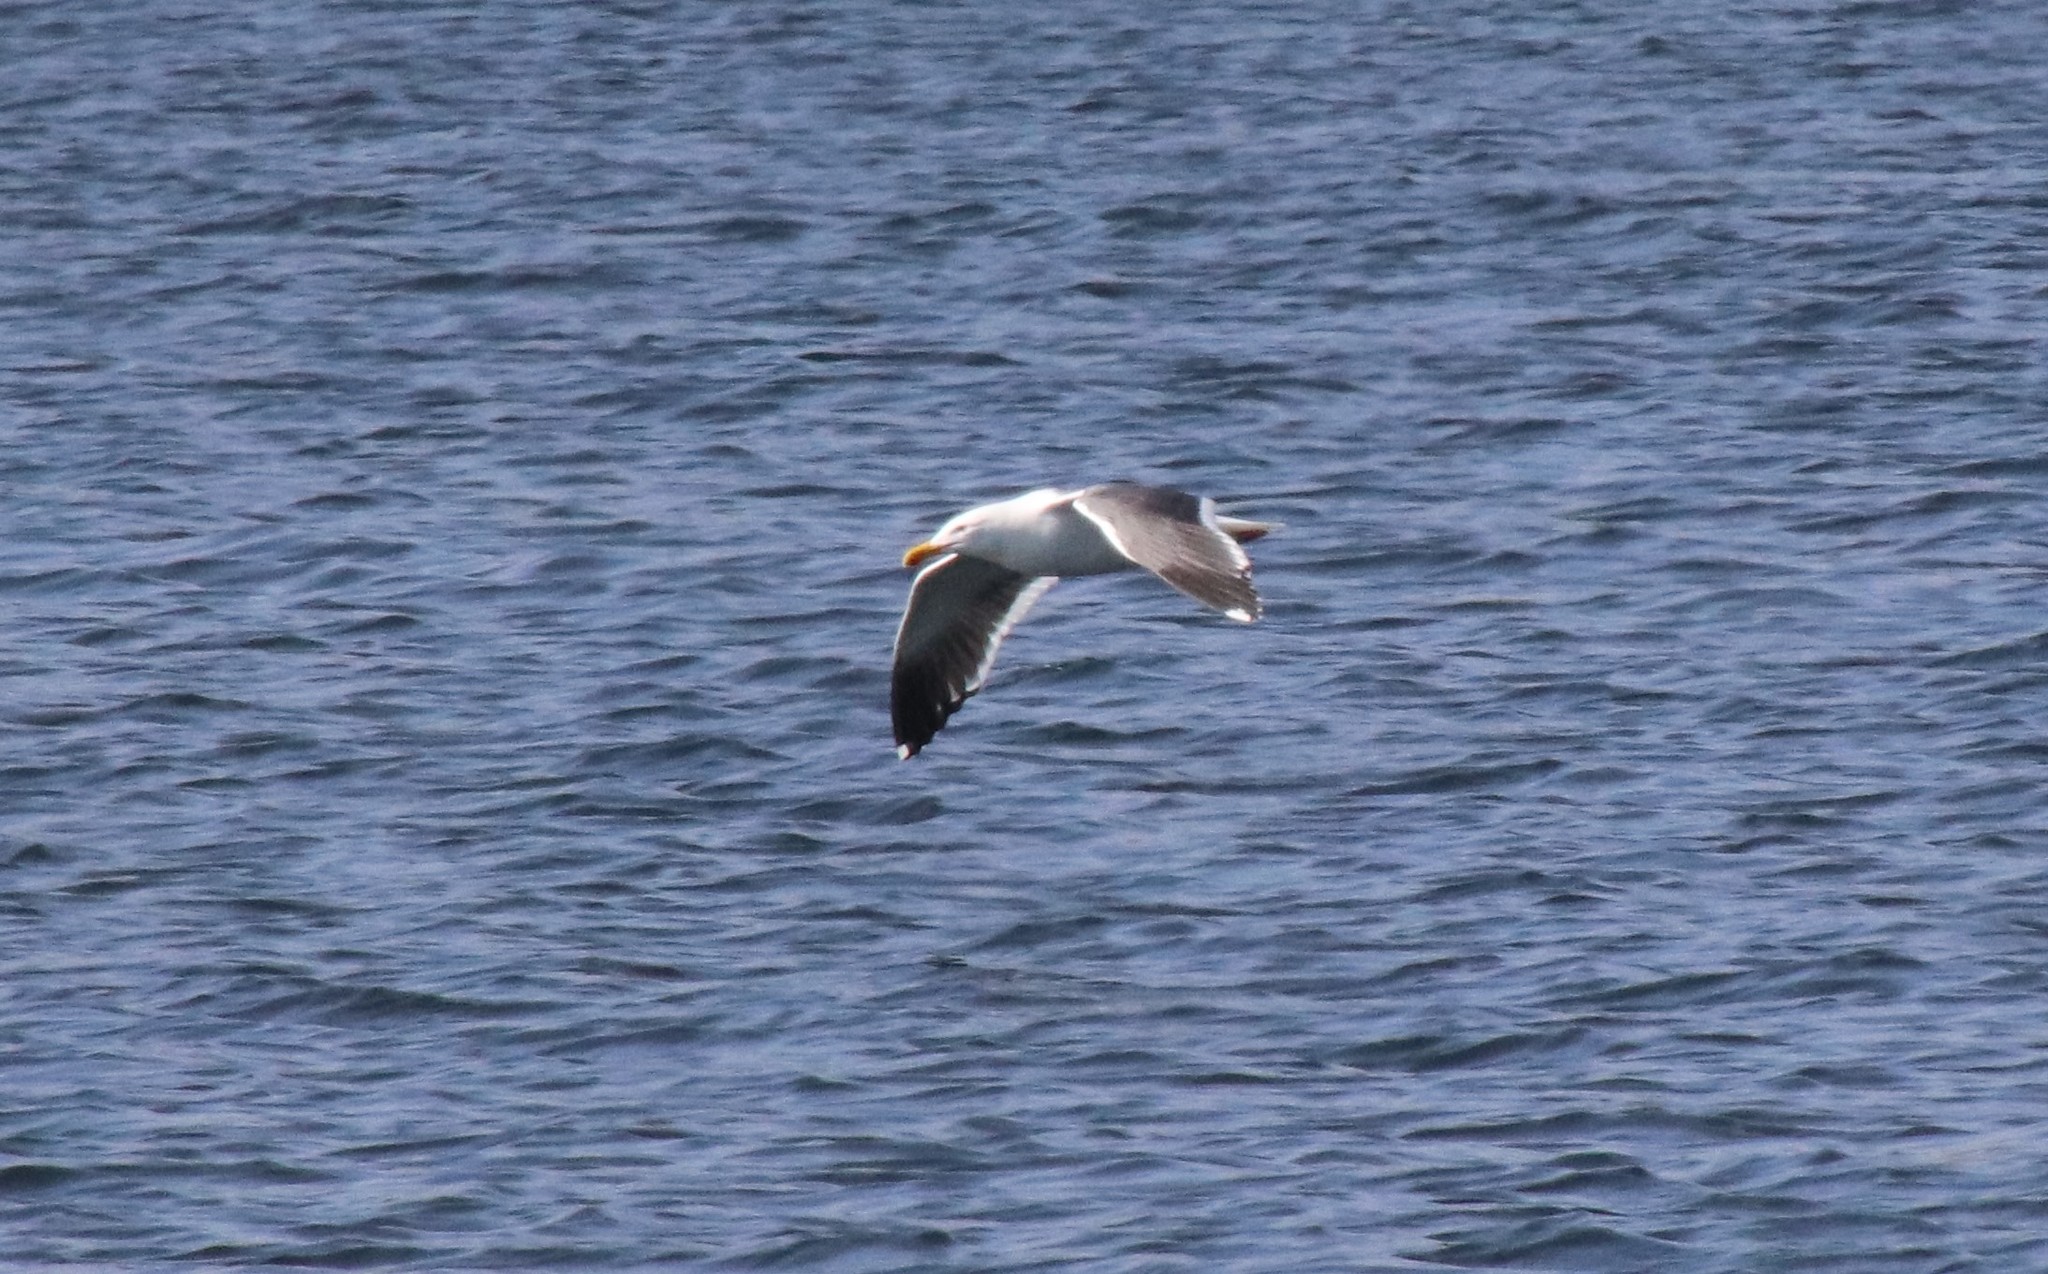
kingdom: Animalia
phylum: Chordata
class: Aves
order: Charadriiformes
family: Laridae
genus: Larus
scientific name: Larus occidentalis
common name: Western gull
